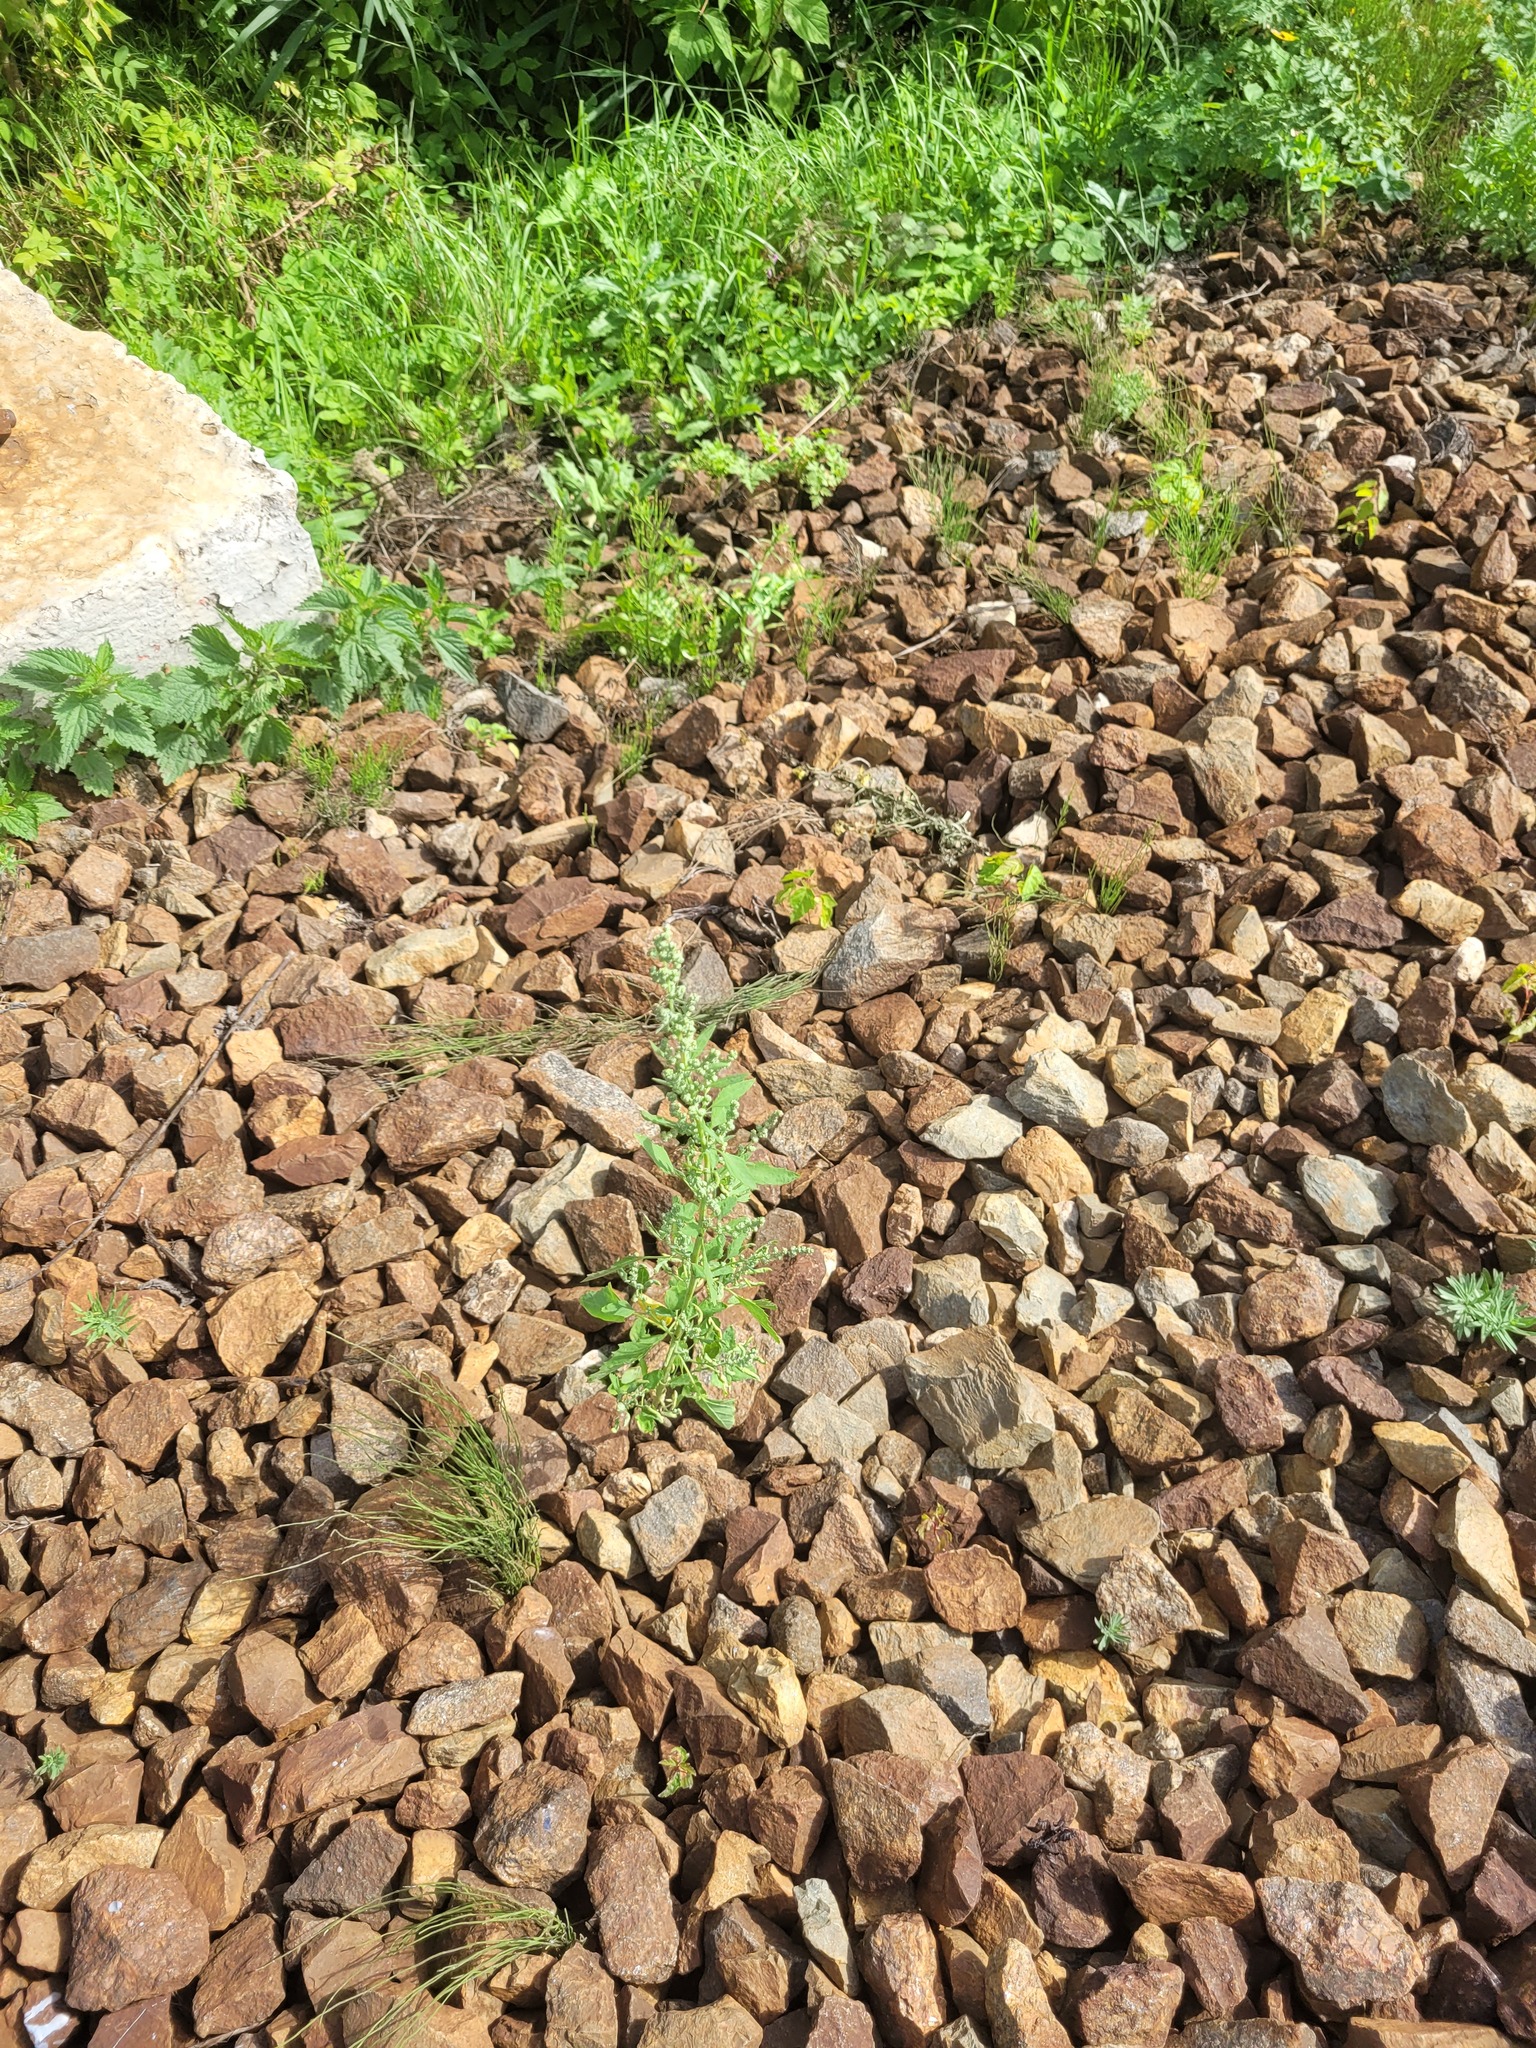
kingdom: Plantae
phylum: Tracheophyta
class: Magnoliopsida
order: Caryophyllales
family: Amaranthaceae
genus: Chenopodium
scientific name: Chenopodium album
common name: Fat-hen
